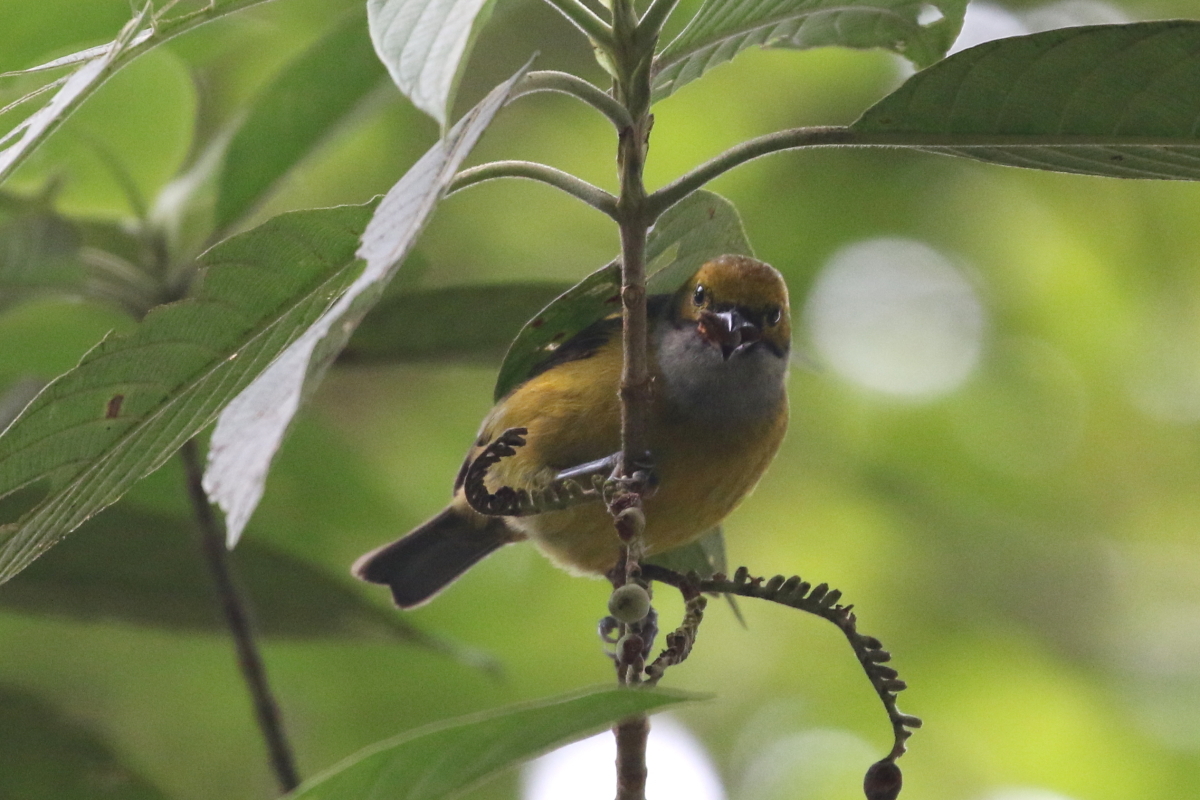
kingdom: Animalia
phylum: Chordata
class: Aves
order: Passeriformes
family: Thraupidae
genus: Tangara
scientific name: Tangara icterocephala
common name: Silver-throated tanager
